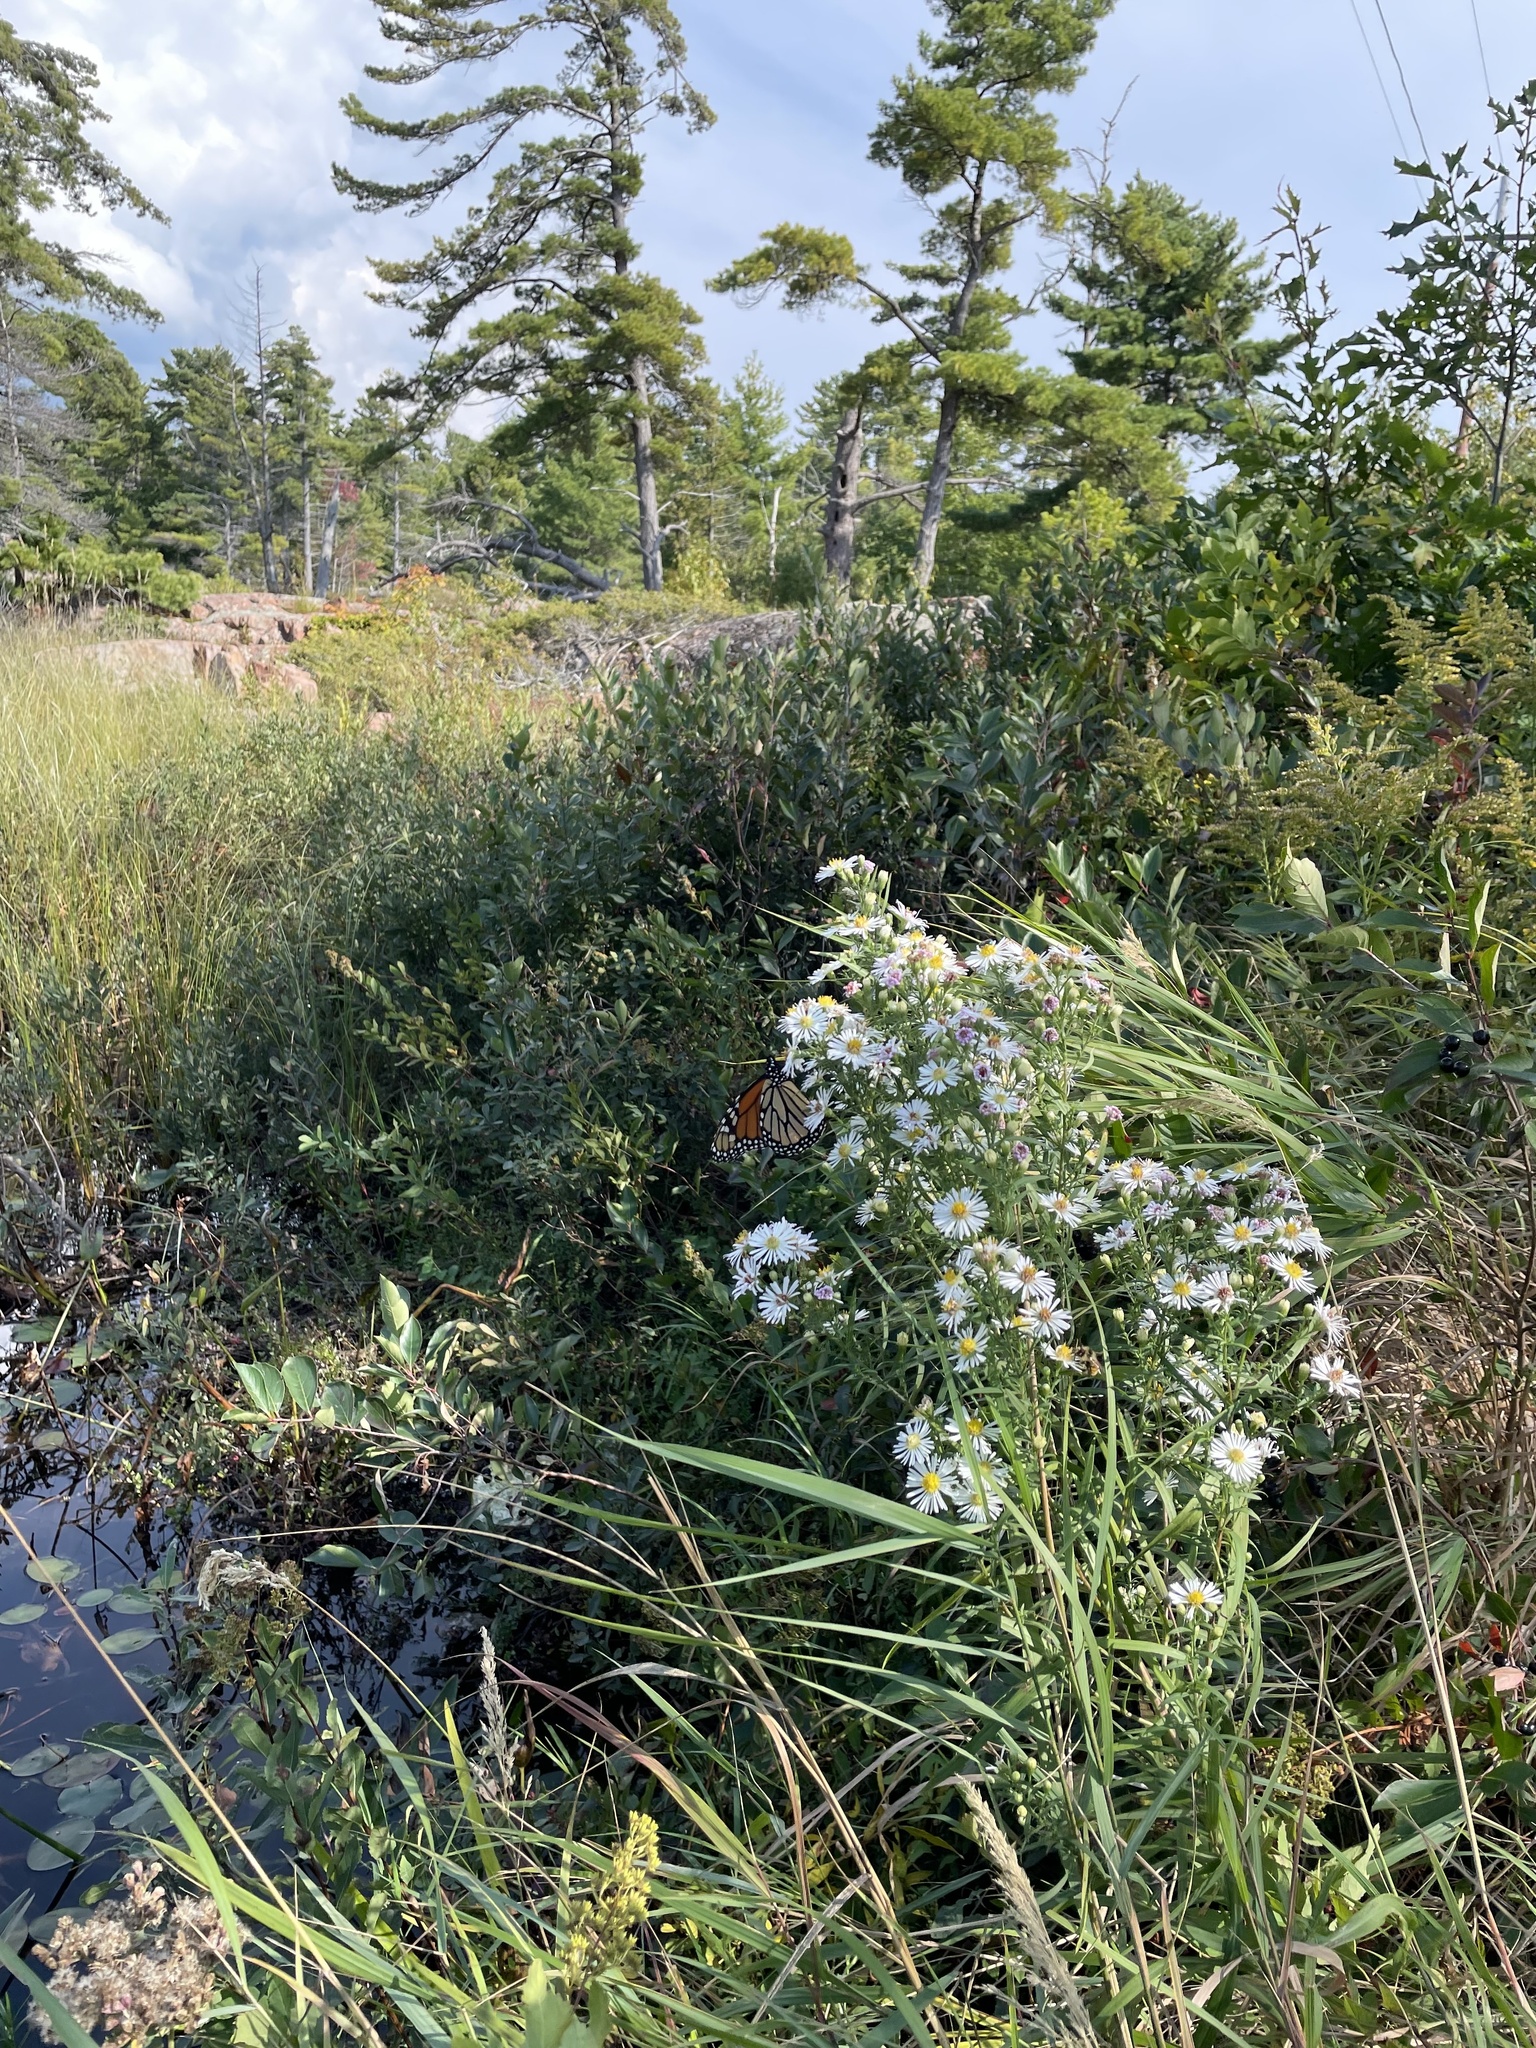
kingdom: Animalia
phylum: Arthropoda
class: Insecta
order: Lepidoptera
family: Nymphalidae
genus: Danaus
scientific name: Danaus plexippus
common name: Monarch
